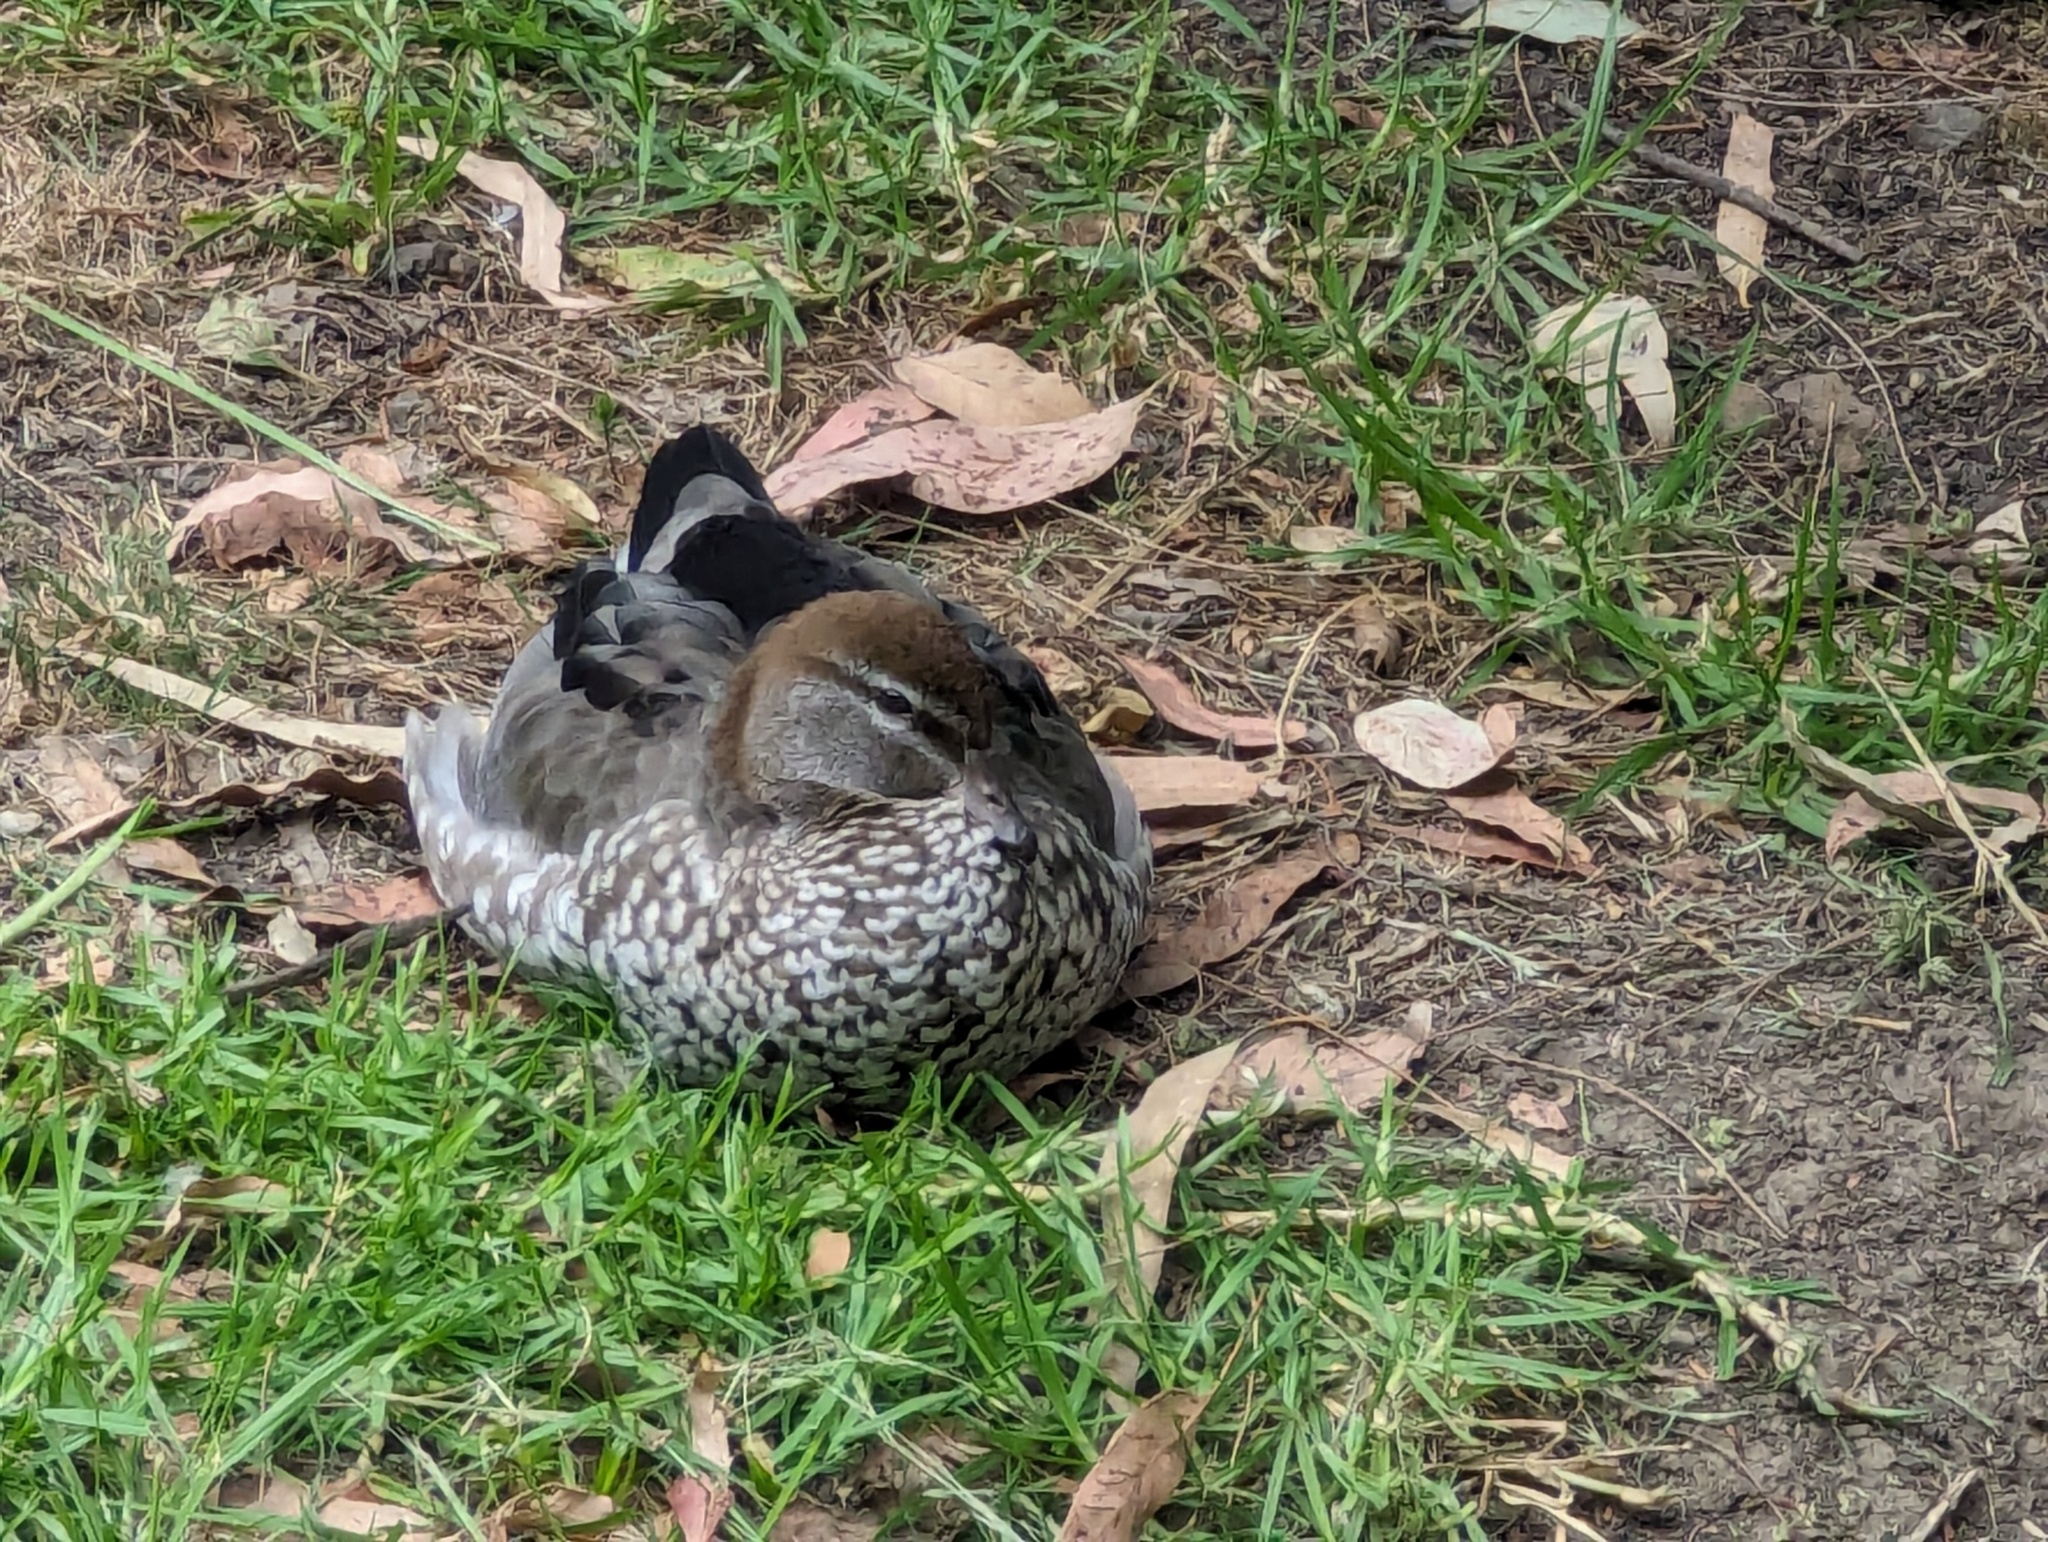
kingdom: Animalia
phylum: Chordata
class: Aves
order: Anseriformes
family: Anatidae
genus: Chenonetta
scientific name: Chenonetta jubata
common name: Maned duck
